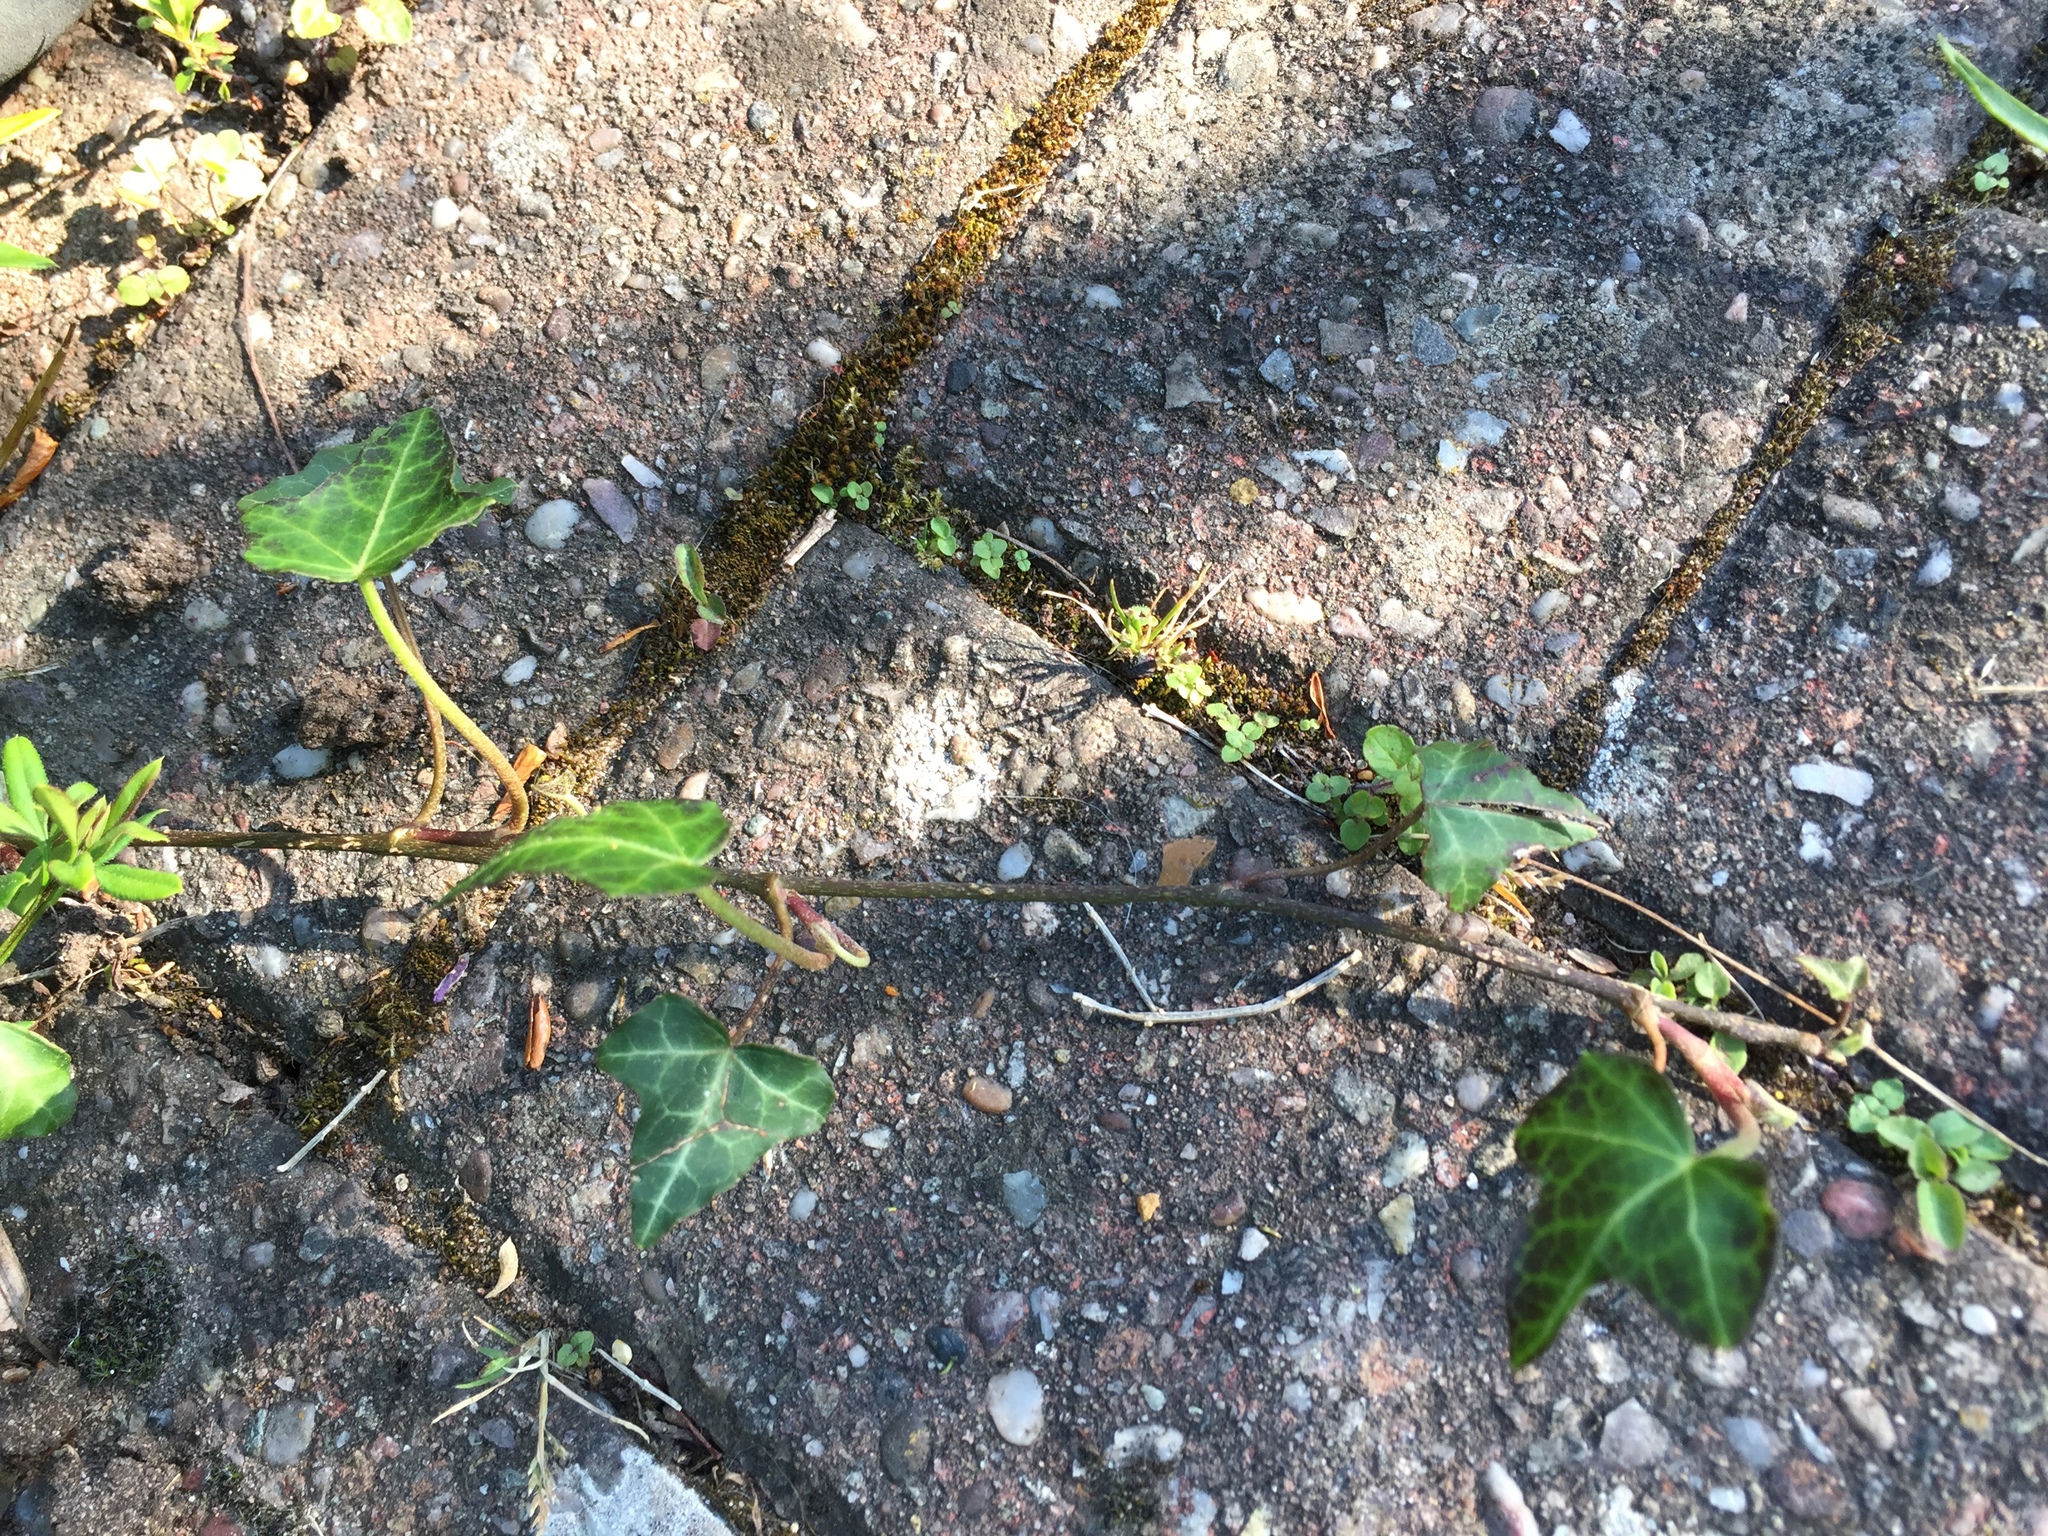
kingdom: Plantae
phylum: Tracheophyta
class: Magnoliopsida
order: Apiales
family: Araliaceae
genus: Hedera
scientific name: Hedera helix
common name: Ivy
